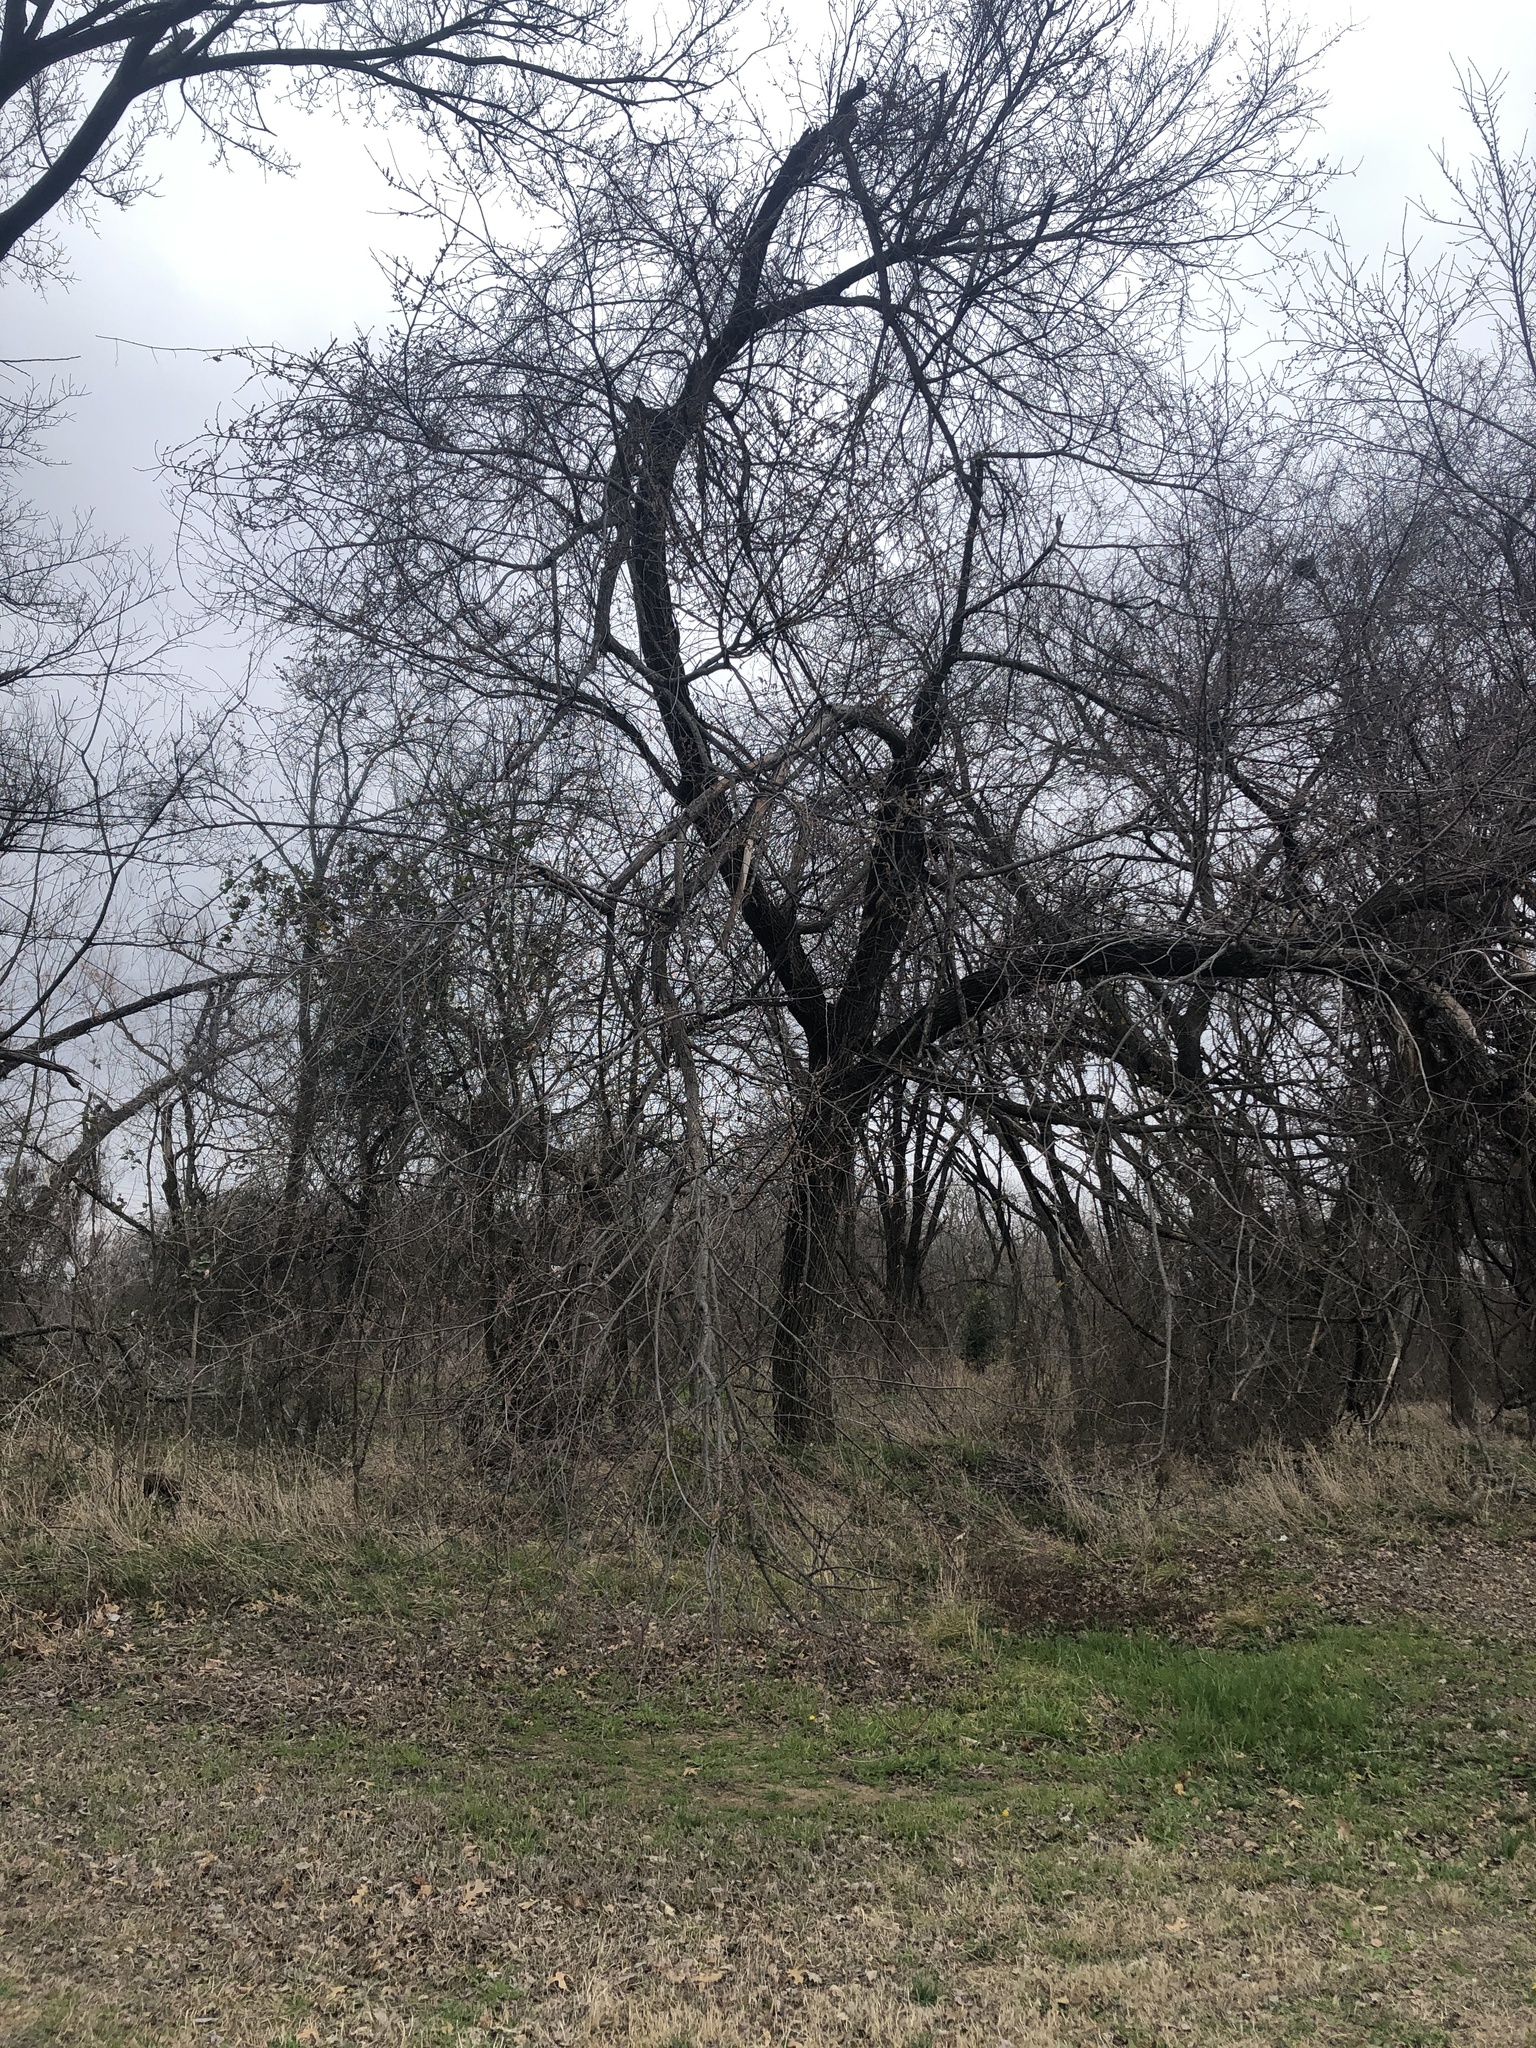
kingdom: Plantae
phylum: Tracheophyta
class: Magnoliopsida
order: Rosales
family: Ulmaceae
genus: Ulmus
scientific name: Ulmus americana
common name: American elm
